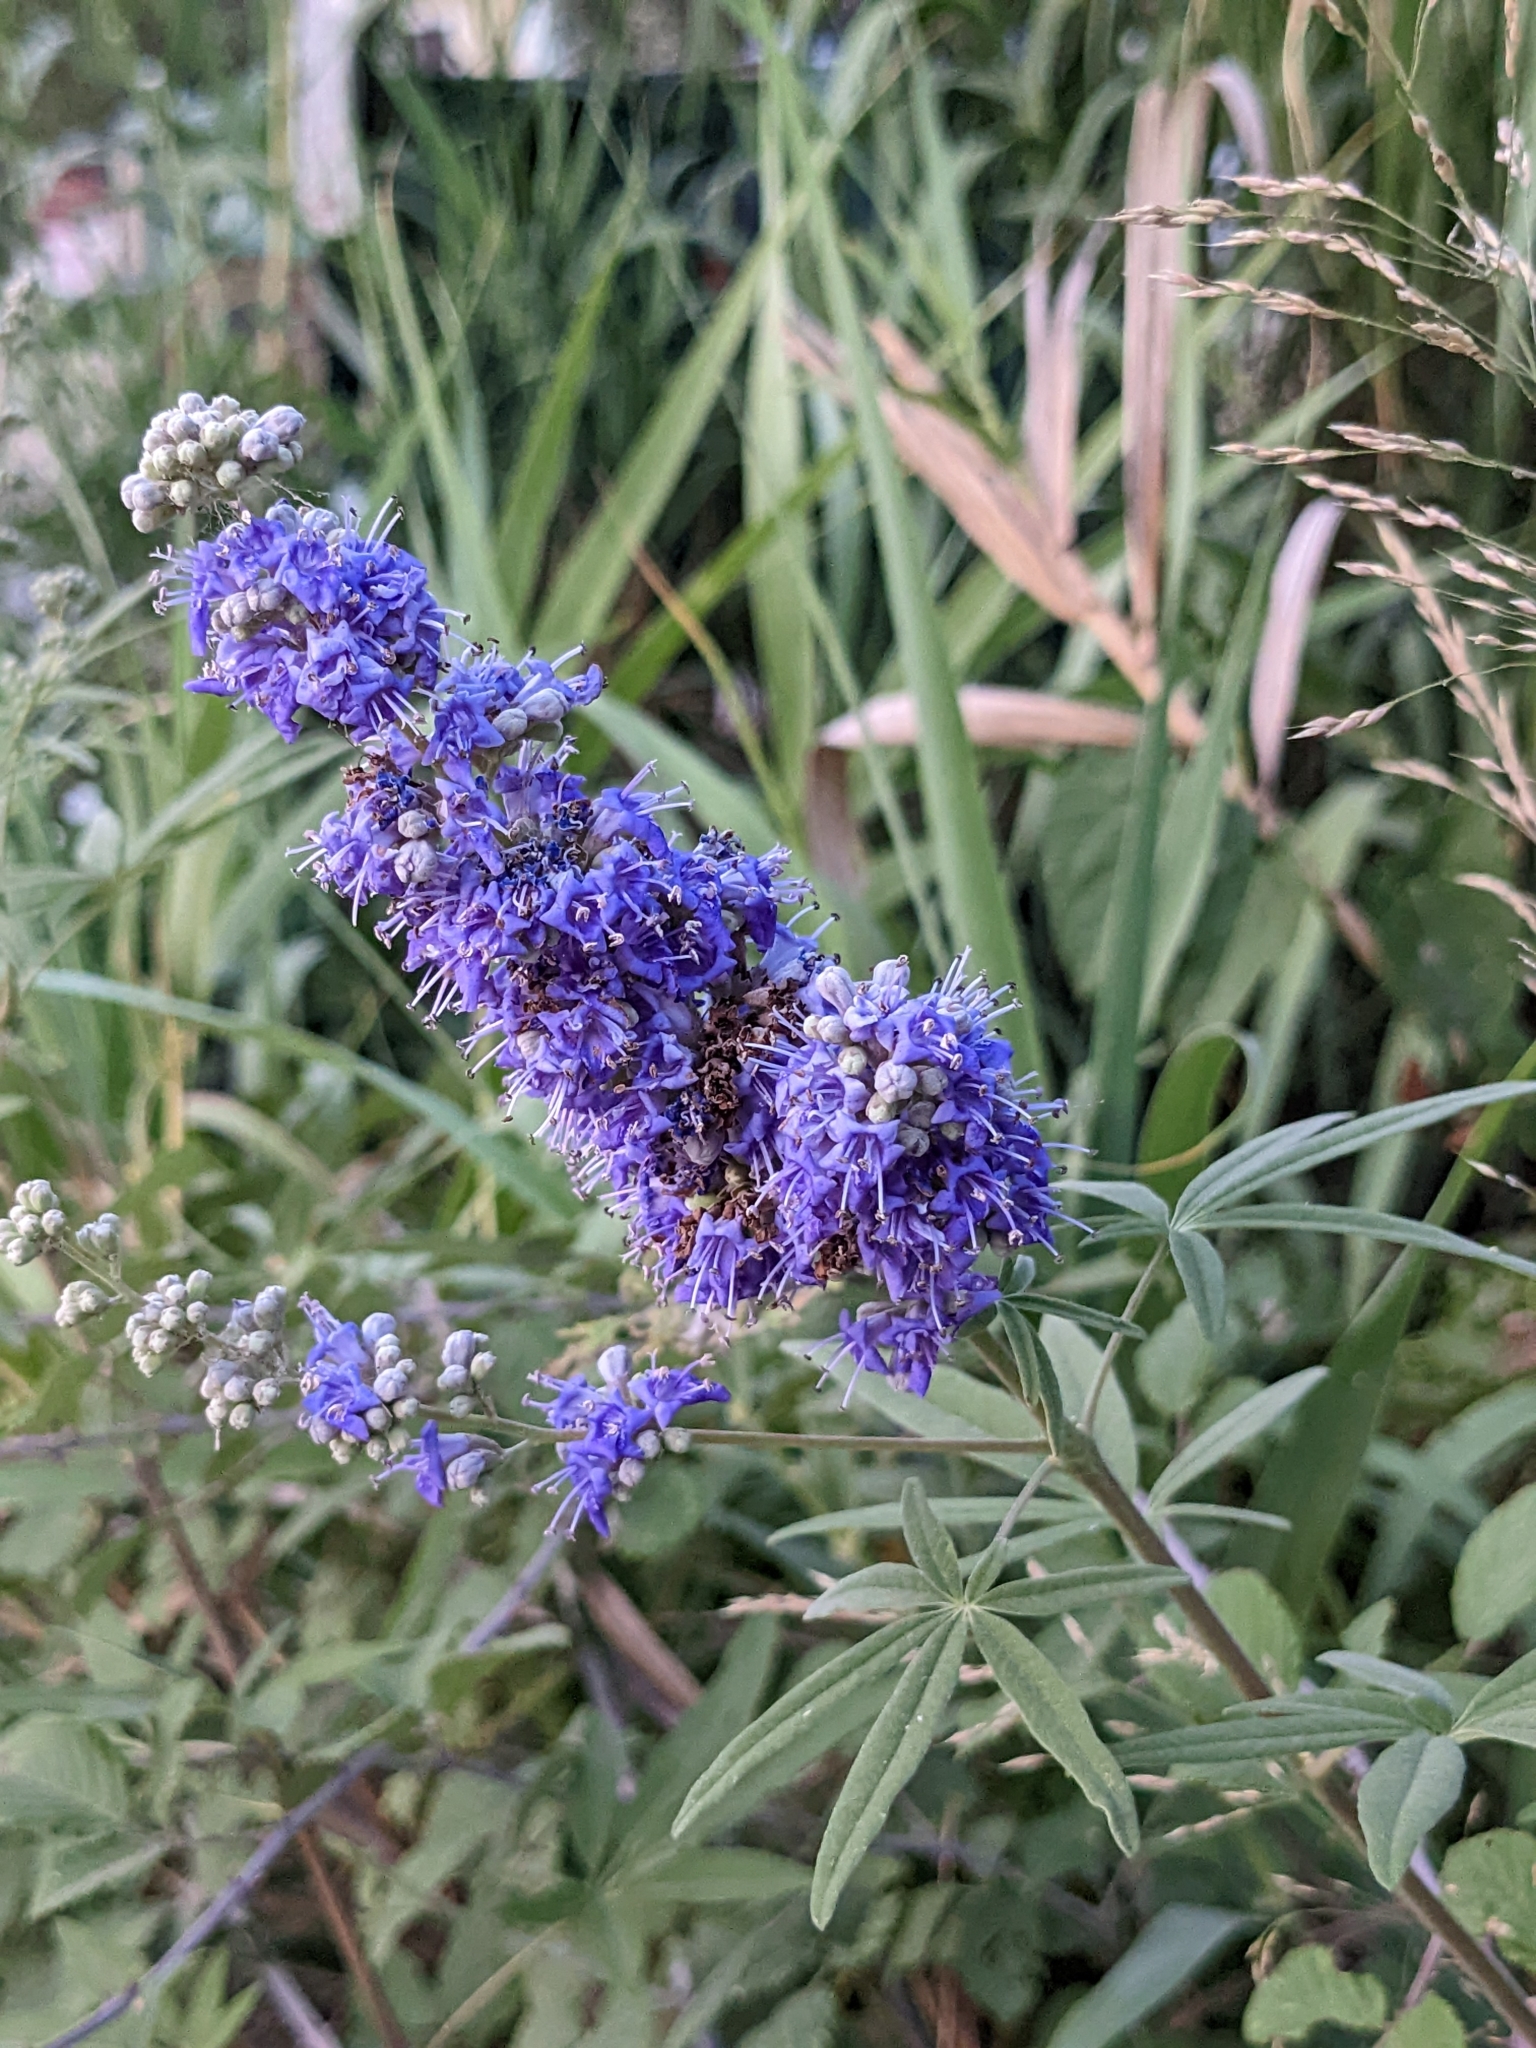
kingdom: Plantae
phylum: Tracheophyta
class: Magnoliopsida
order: Lamiales
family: Lamiaceae
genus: Vitex
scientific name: Vitex agnus-castus
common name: Chasteberry
